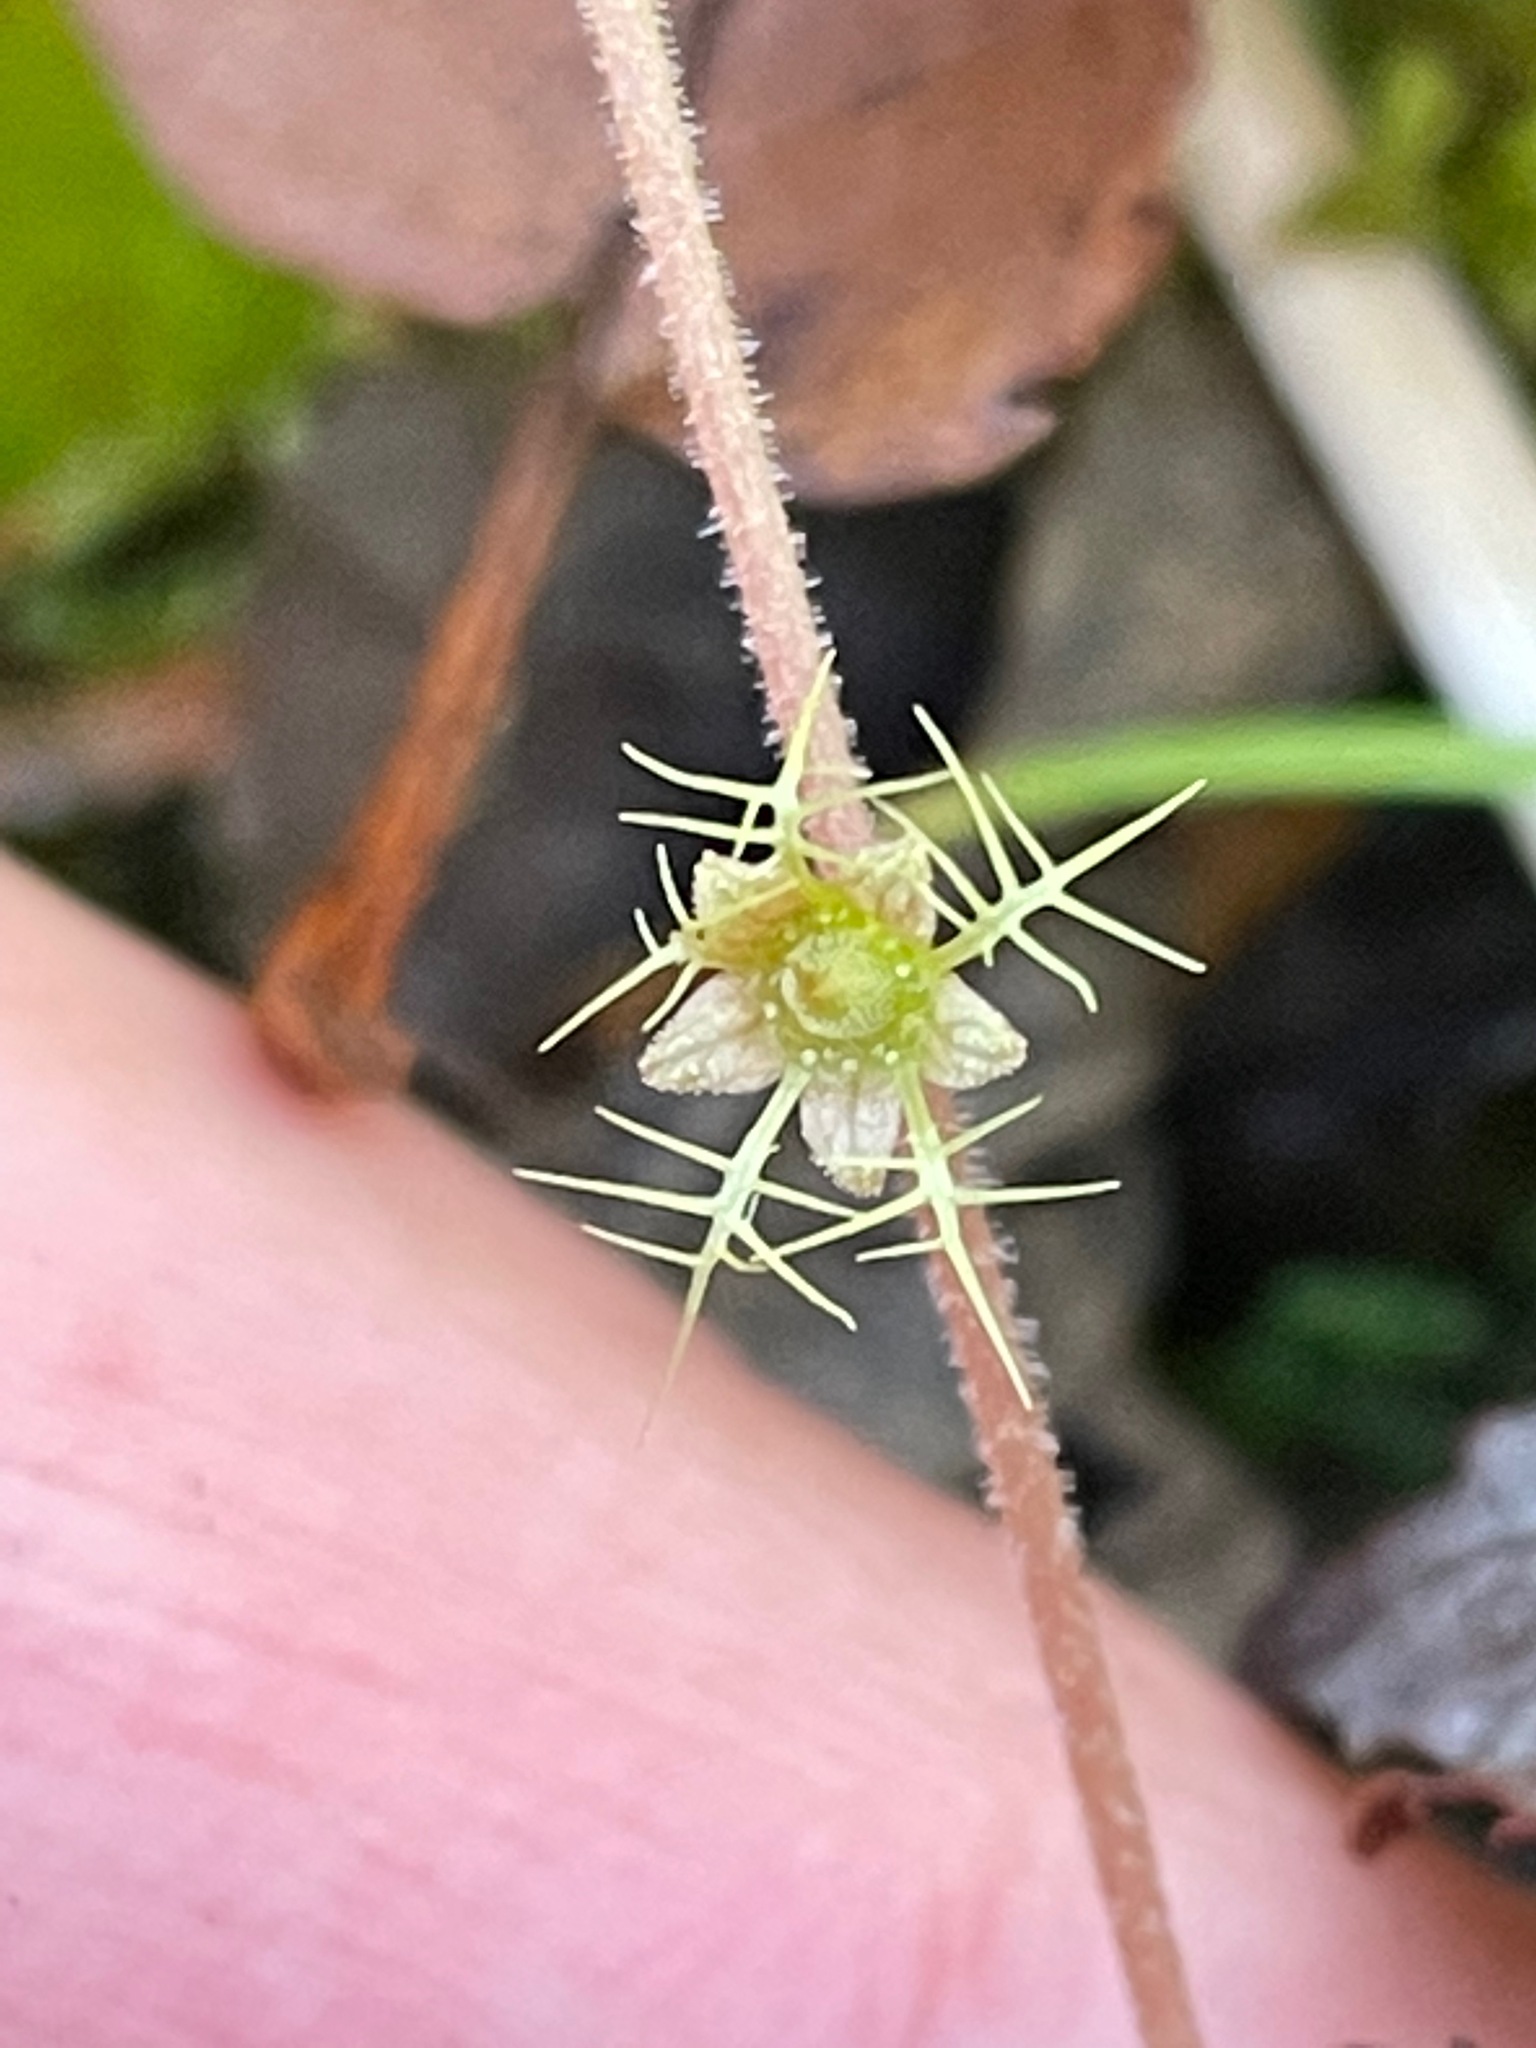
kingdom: Plantae
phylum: Tracheophyta
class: Magnoliopsida
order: Saxifragales
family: Saxifragaceae
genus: Mitella
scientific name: Mitella nuda
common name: Bare-stemmed bishop's-cap
